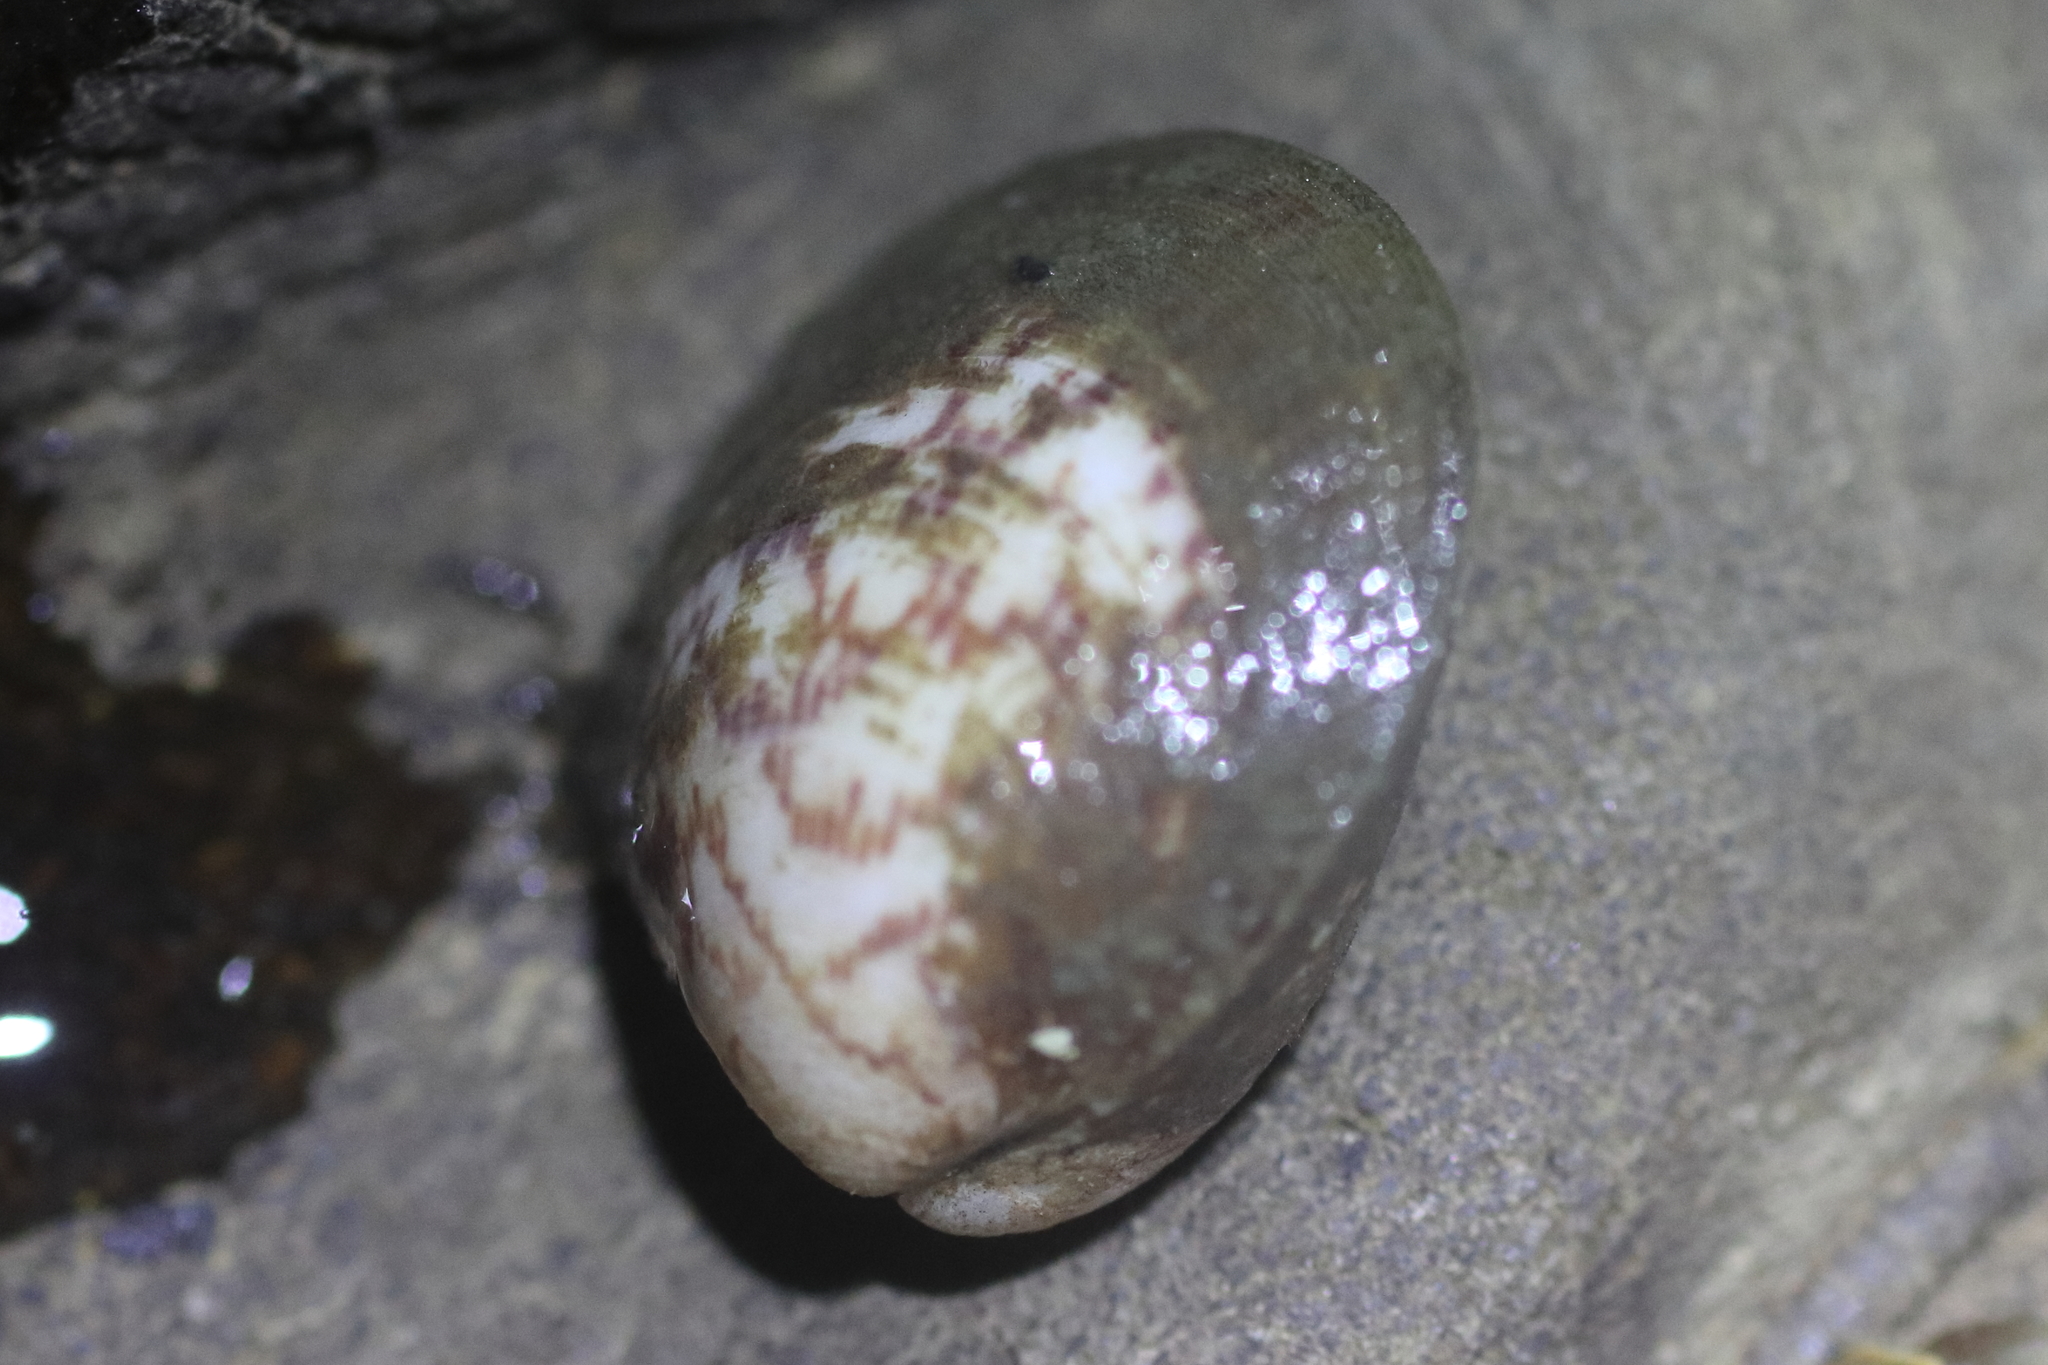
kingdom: Animalia
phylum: Mollusca
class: Bivalvia
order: Arcida
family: Glycymerididae
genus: Glycymeris
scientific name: Glycymeris septentrionalis
